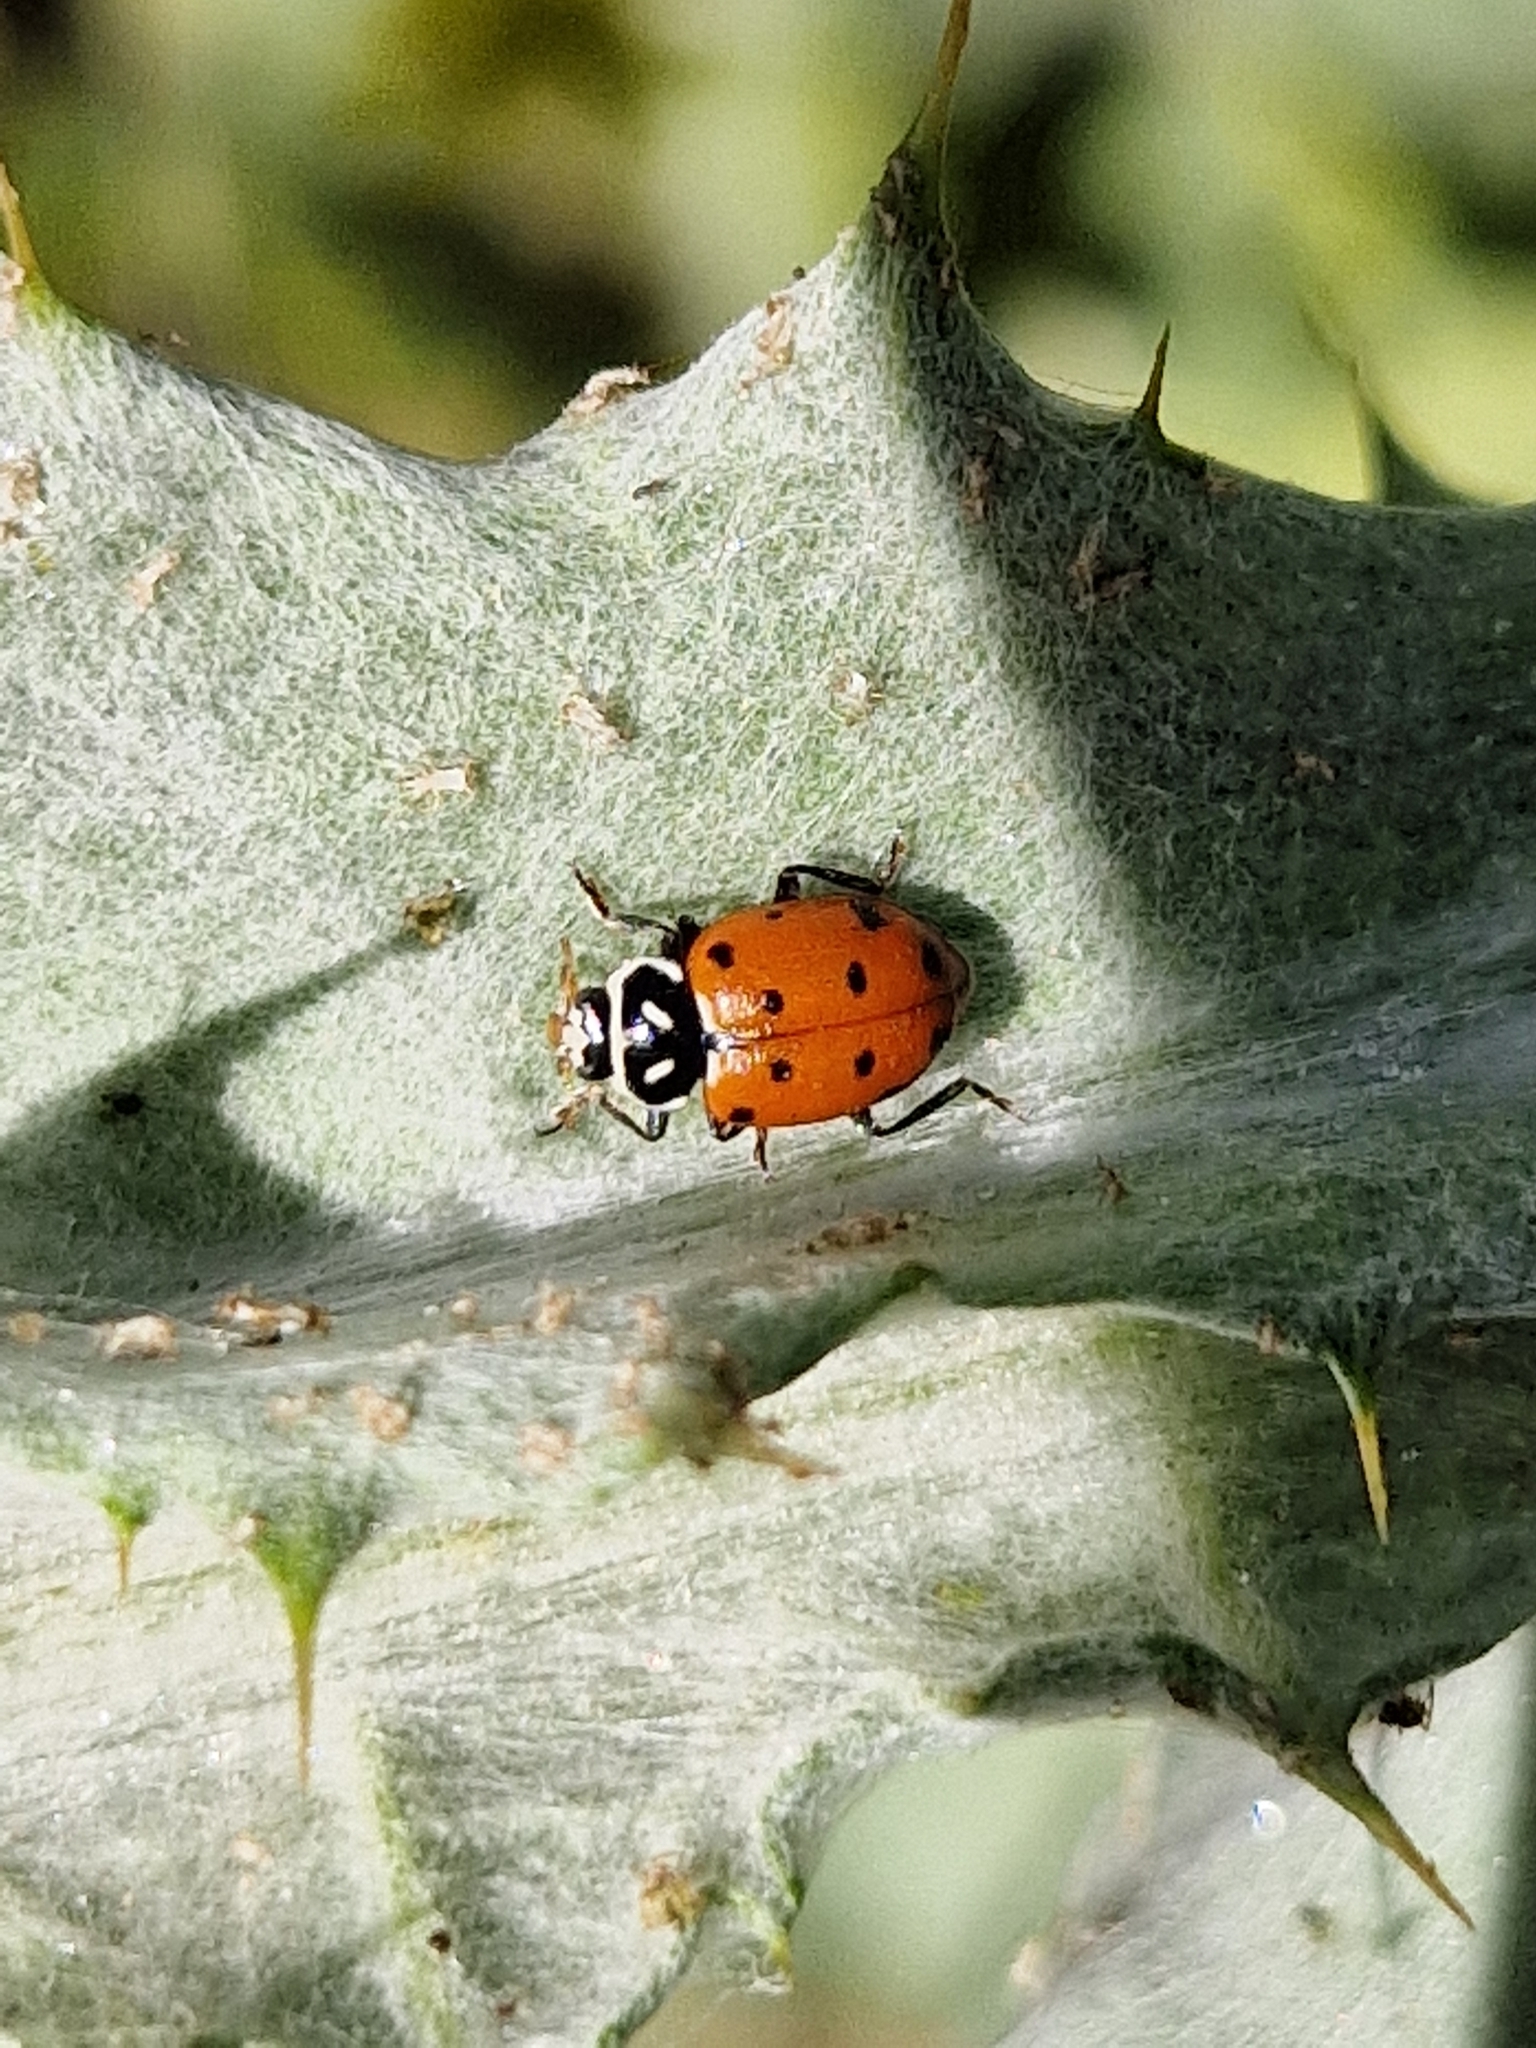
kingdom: Animalia
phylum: Arthropoda
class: Insecta
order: Coleoptera
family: Coccinellidae
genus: Hippodamia
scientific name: Hippodamia convergens
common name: Convergent lady beetle
